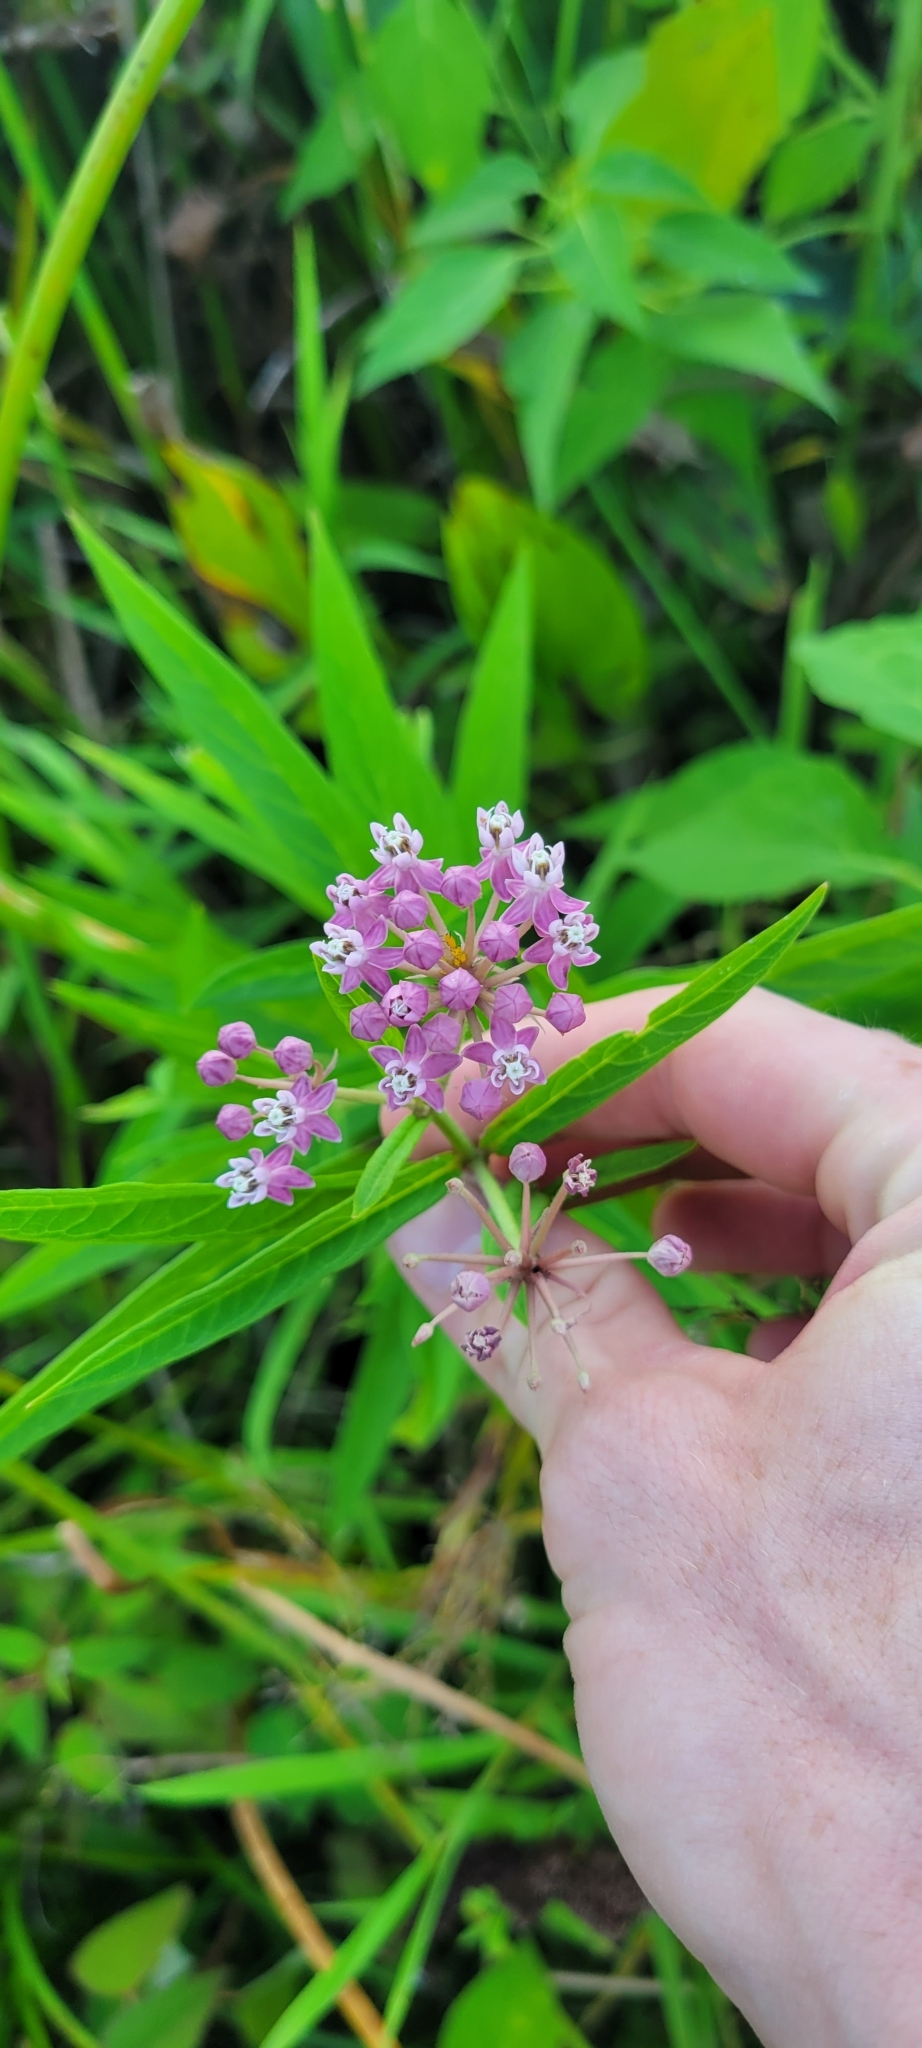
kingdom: Plantae
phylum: Tracheophyta
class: Magnoliopsida
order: Gentianales
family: Apocynaceae
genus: Asclepias
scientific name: Asclepias incarnata
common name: Swamp milkweed
